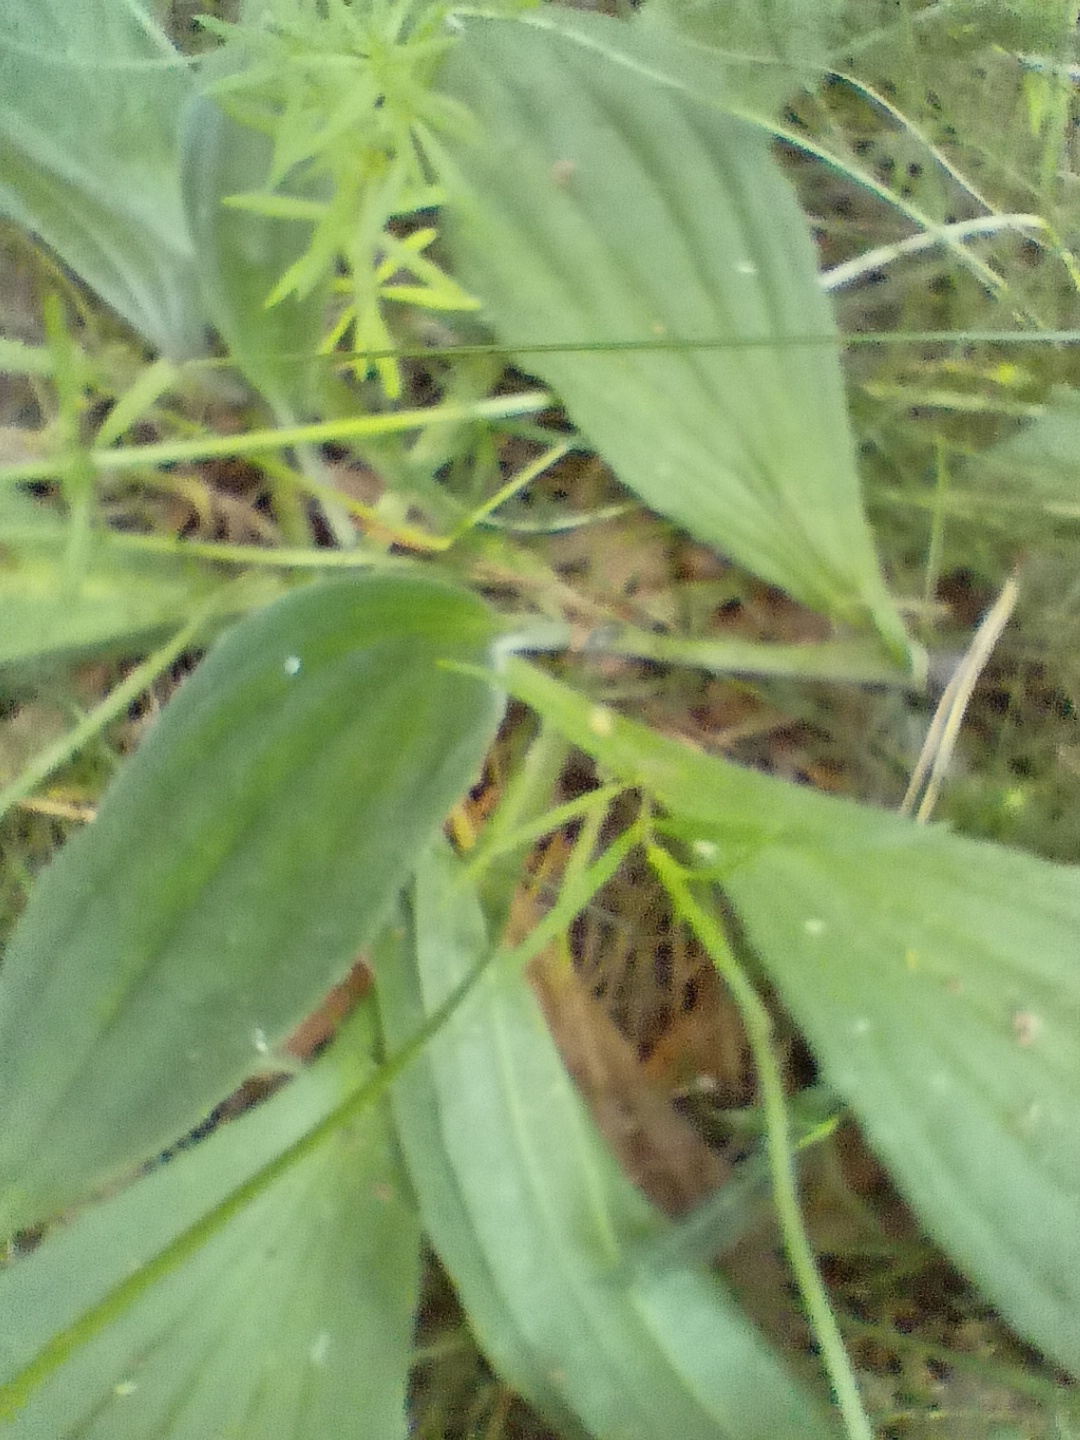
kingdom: Plantae
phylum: Tracheophyta
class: Magnoliopsida
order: Lamiales
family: Plantaginaceae
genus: Plantago
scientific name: Plantago media
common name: Hoary plantain
